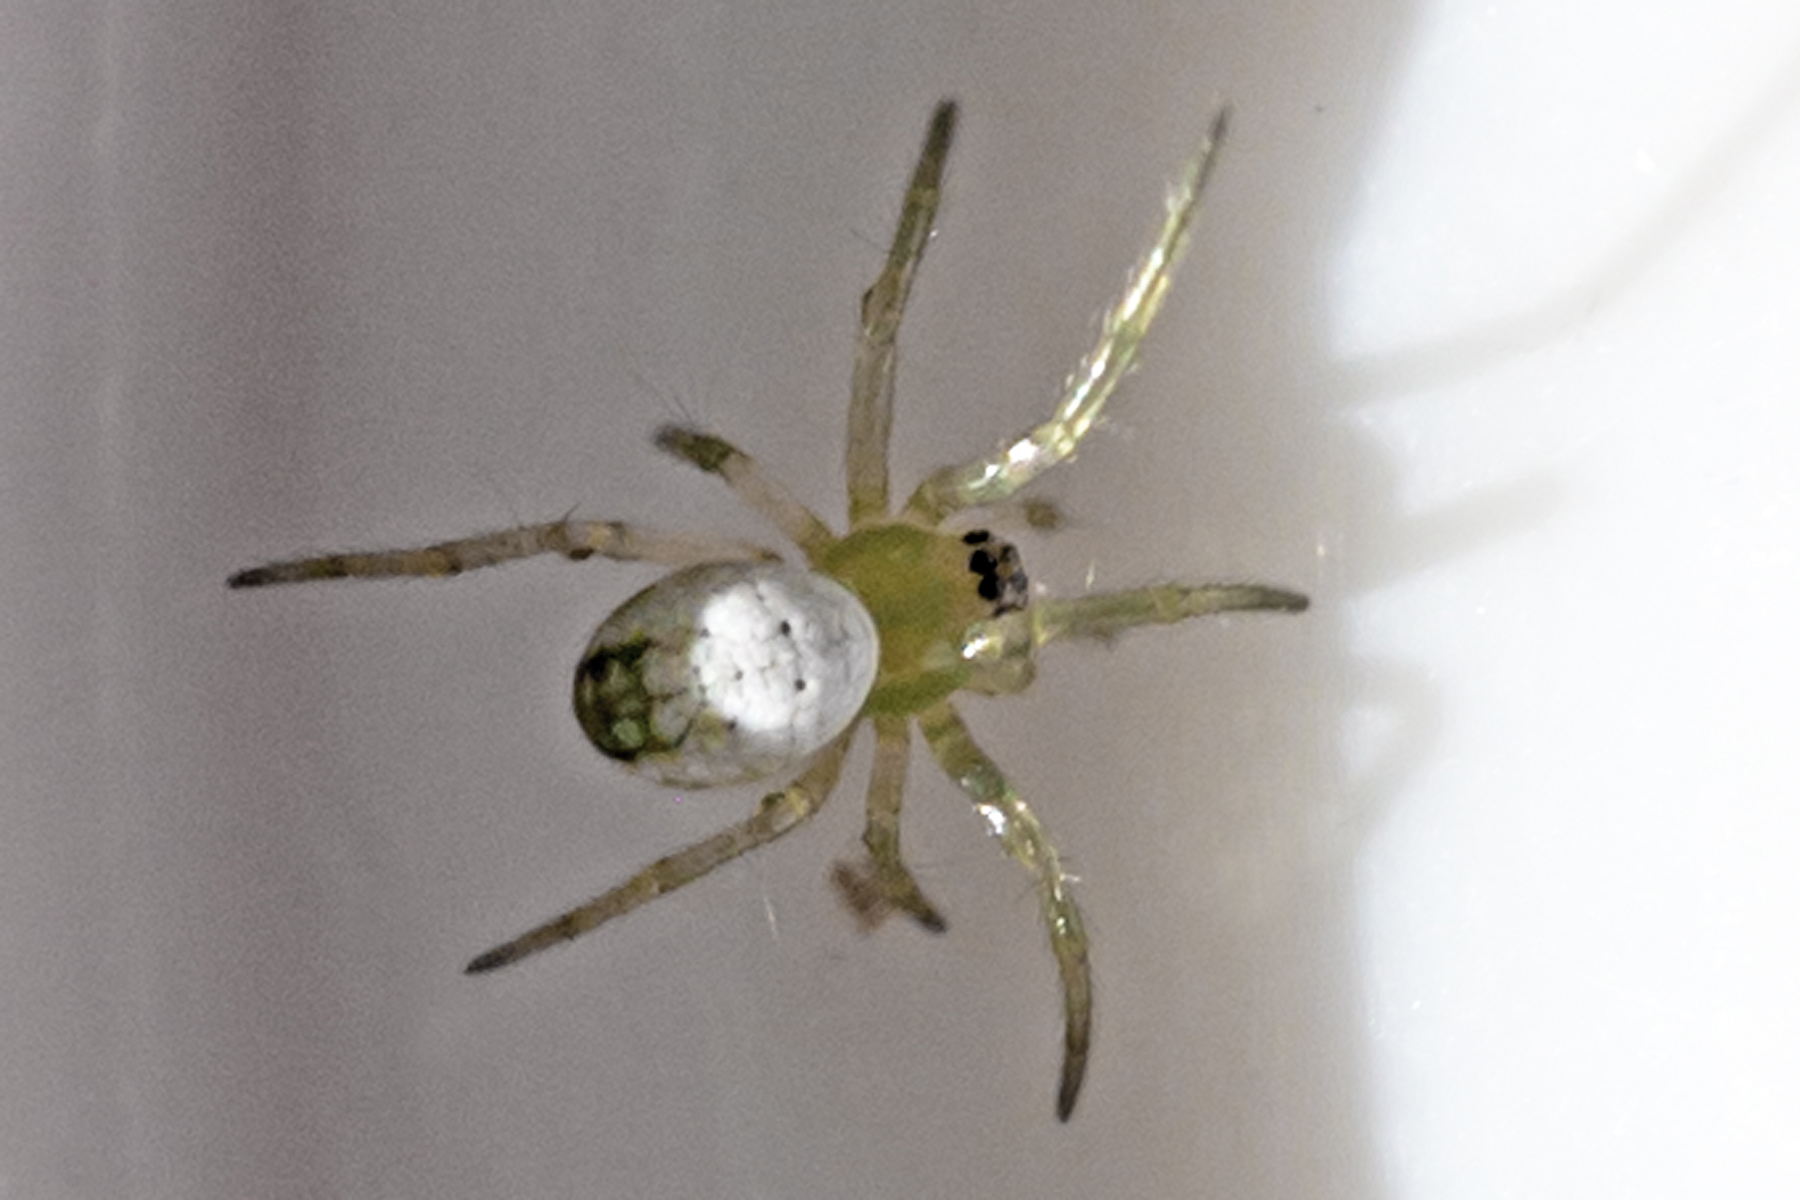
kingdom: Animalia
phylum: Arthropoda
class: Arachnida
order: Araneae
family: Tetragnathidae
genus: Leucauge
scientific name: Leucauge venusta
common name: Longjawed orb weavers
